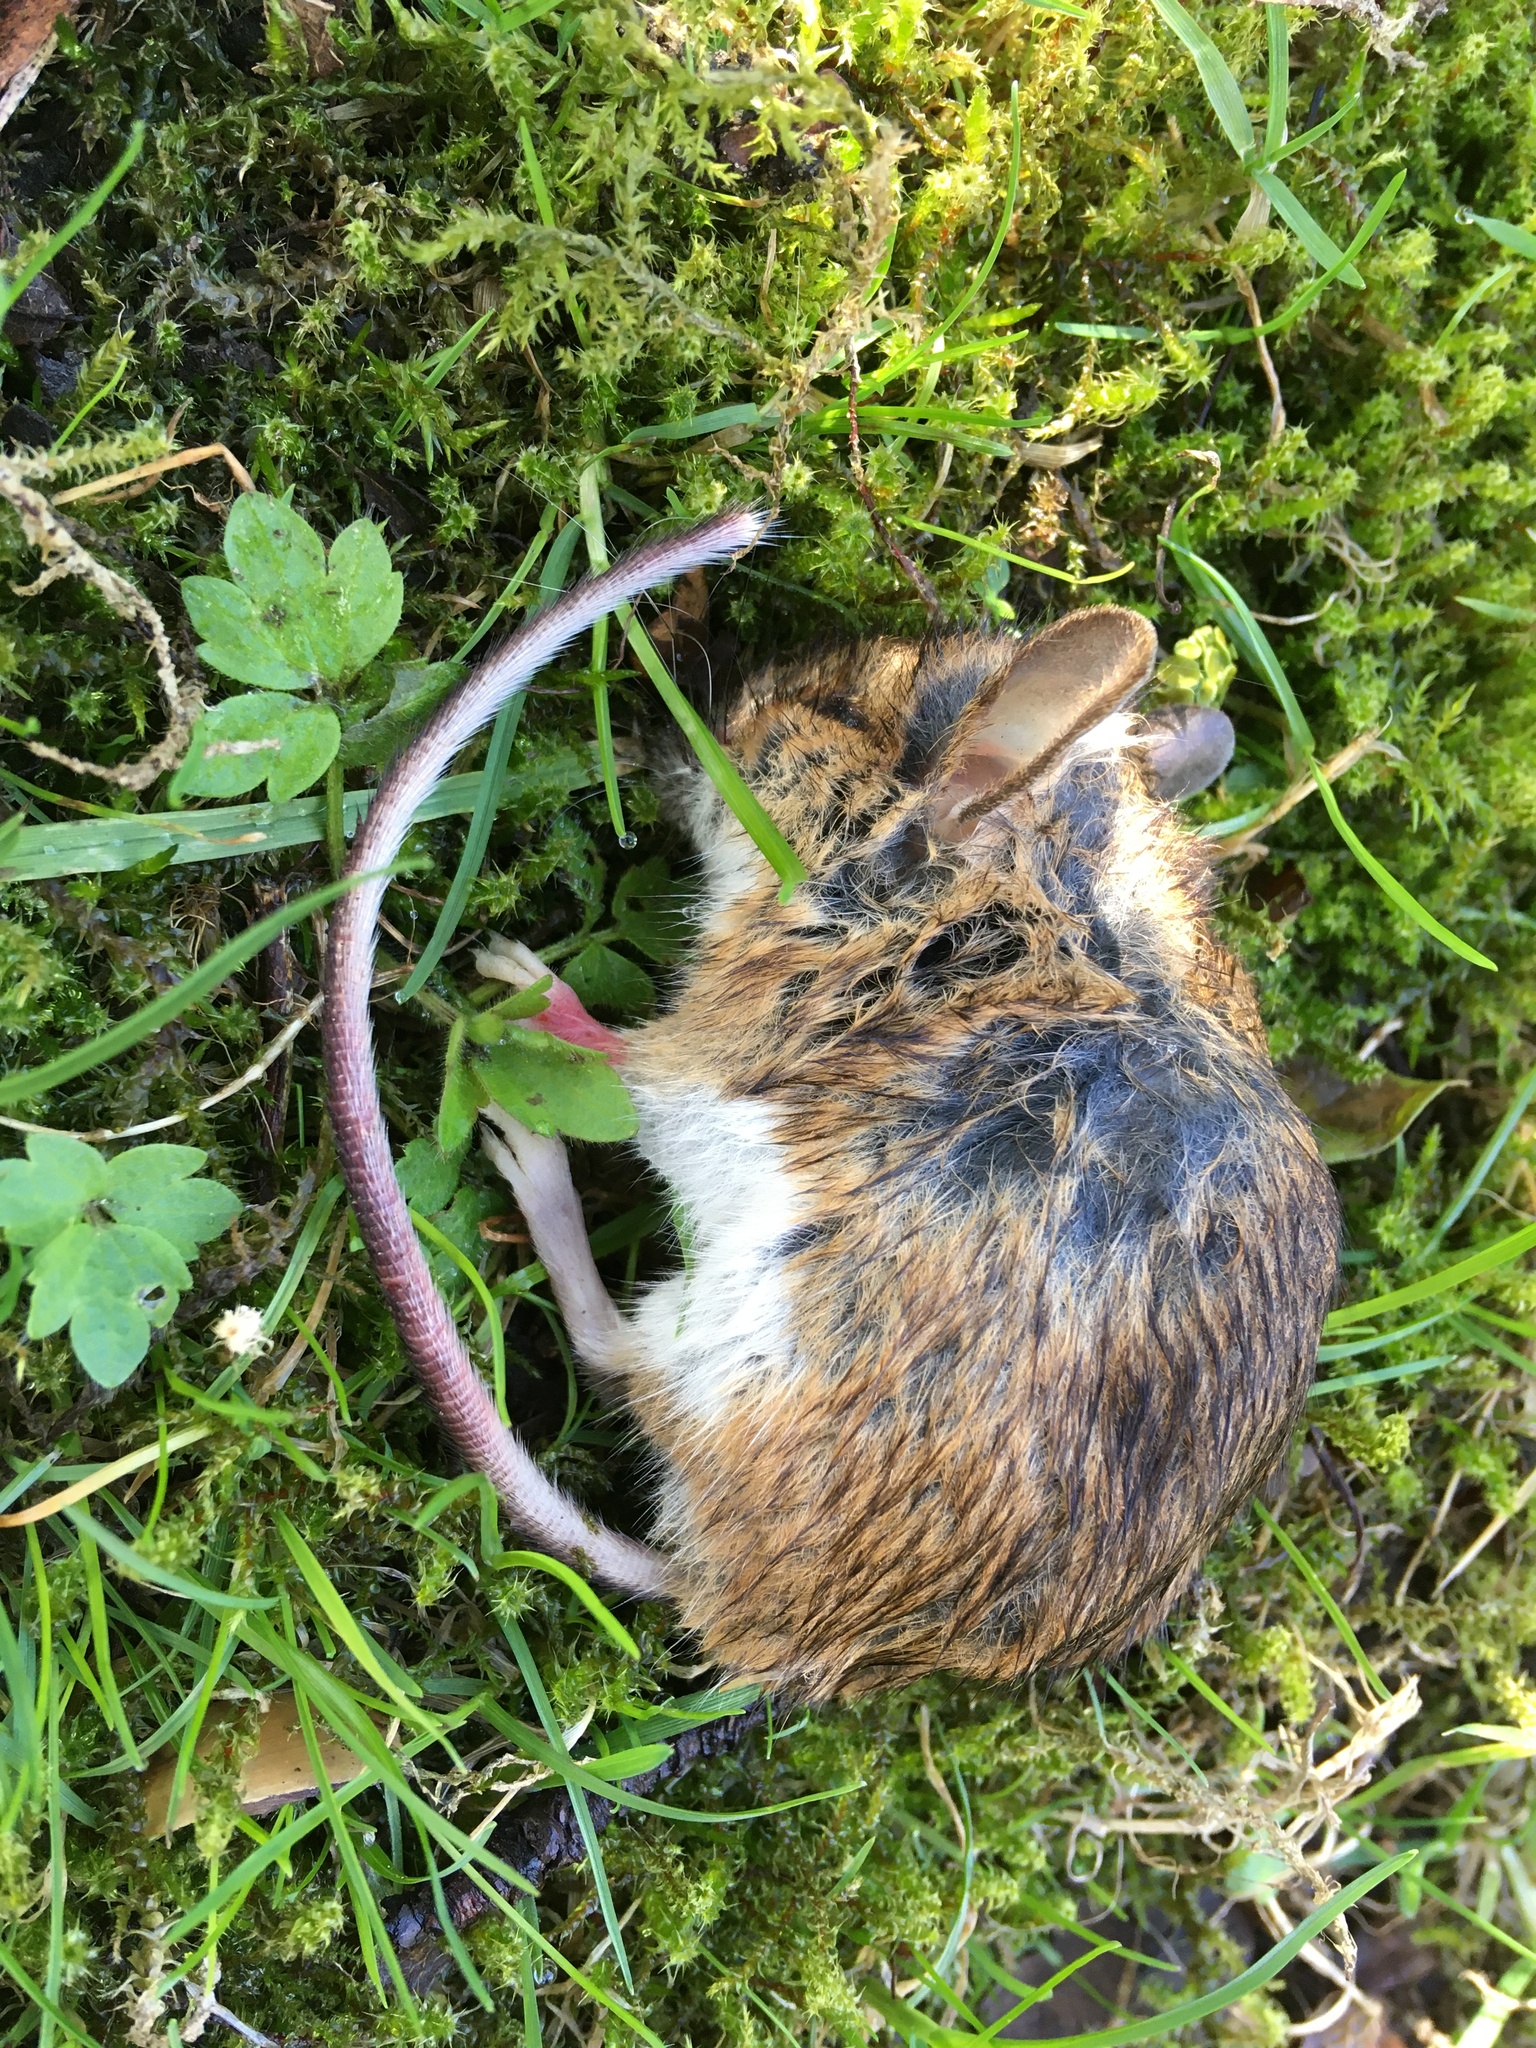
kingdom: Animalia
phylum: Chordata
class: Mammalia
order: Rodentia
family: Muridae
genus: Apodemus
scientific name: Apodemus sylvaticus
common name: Wood mouse
